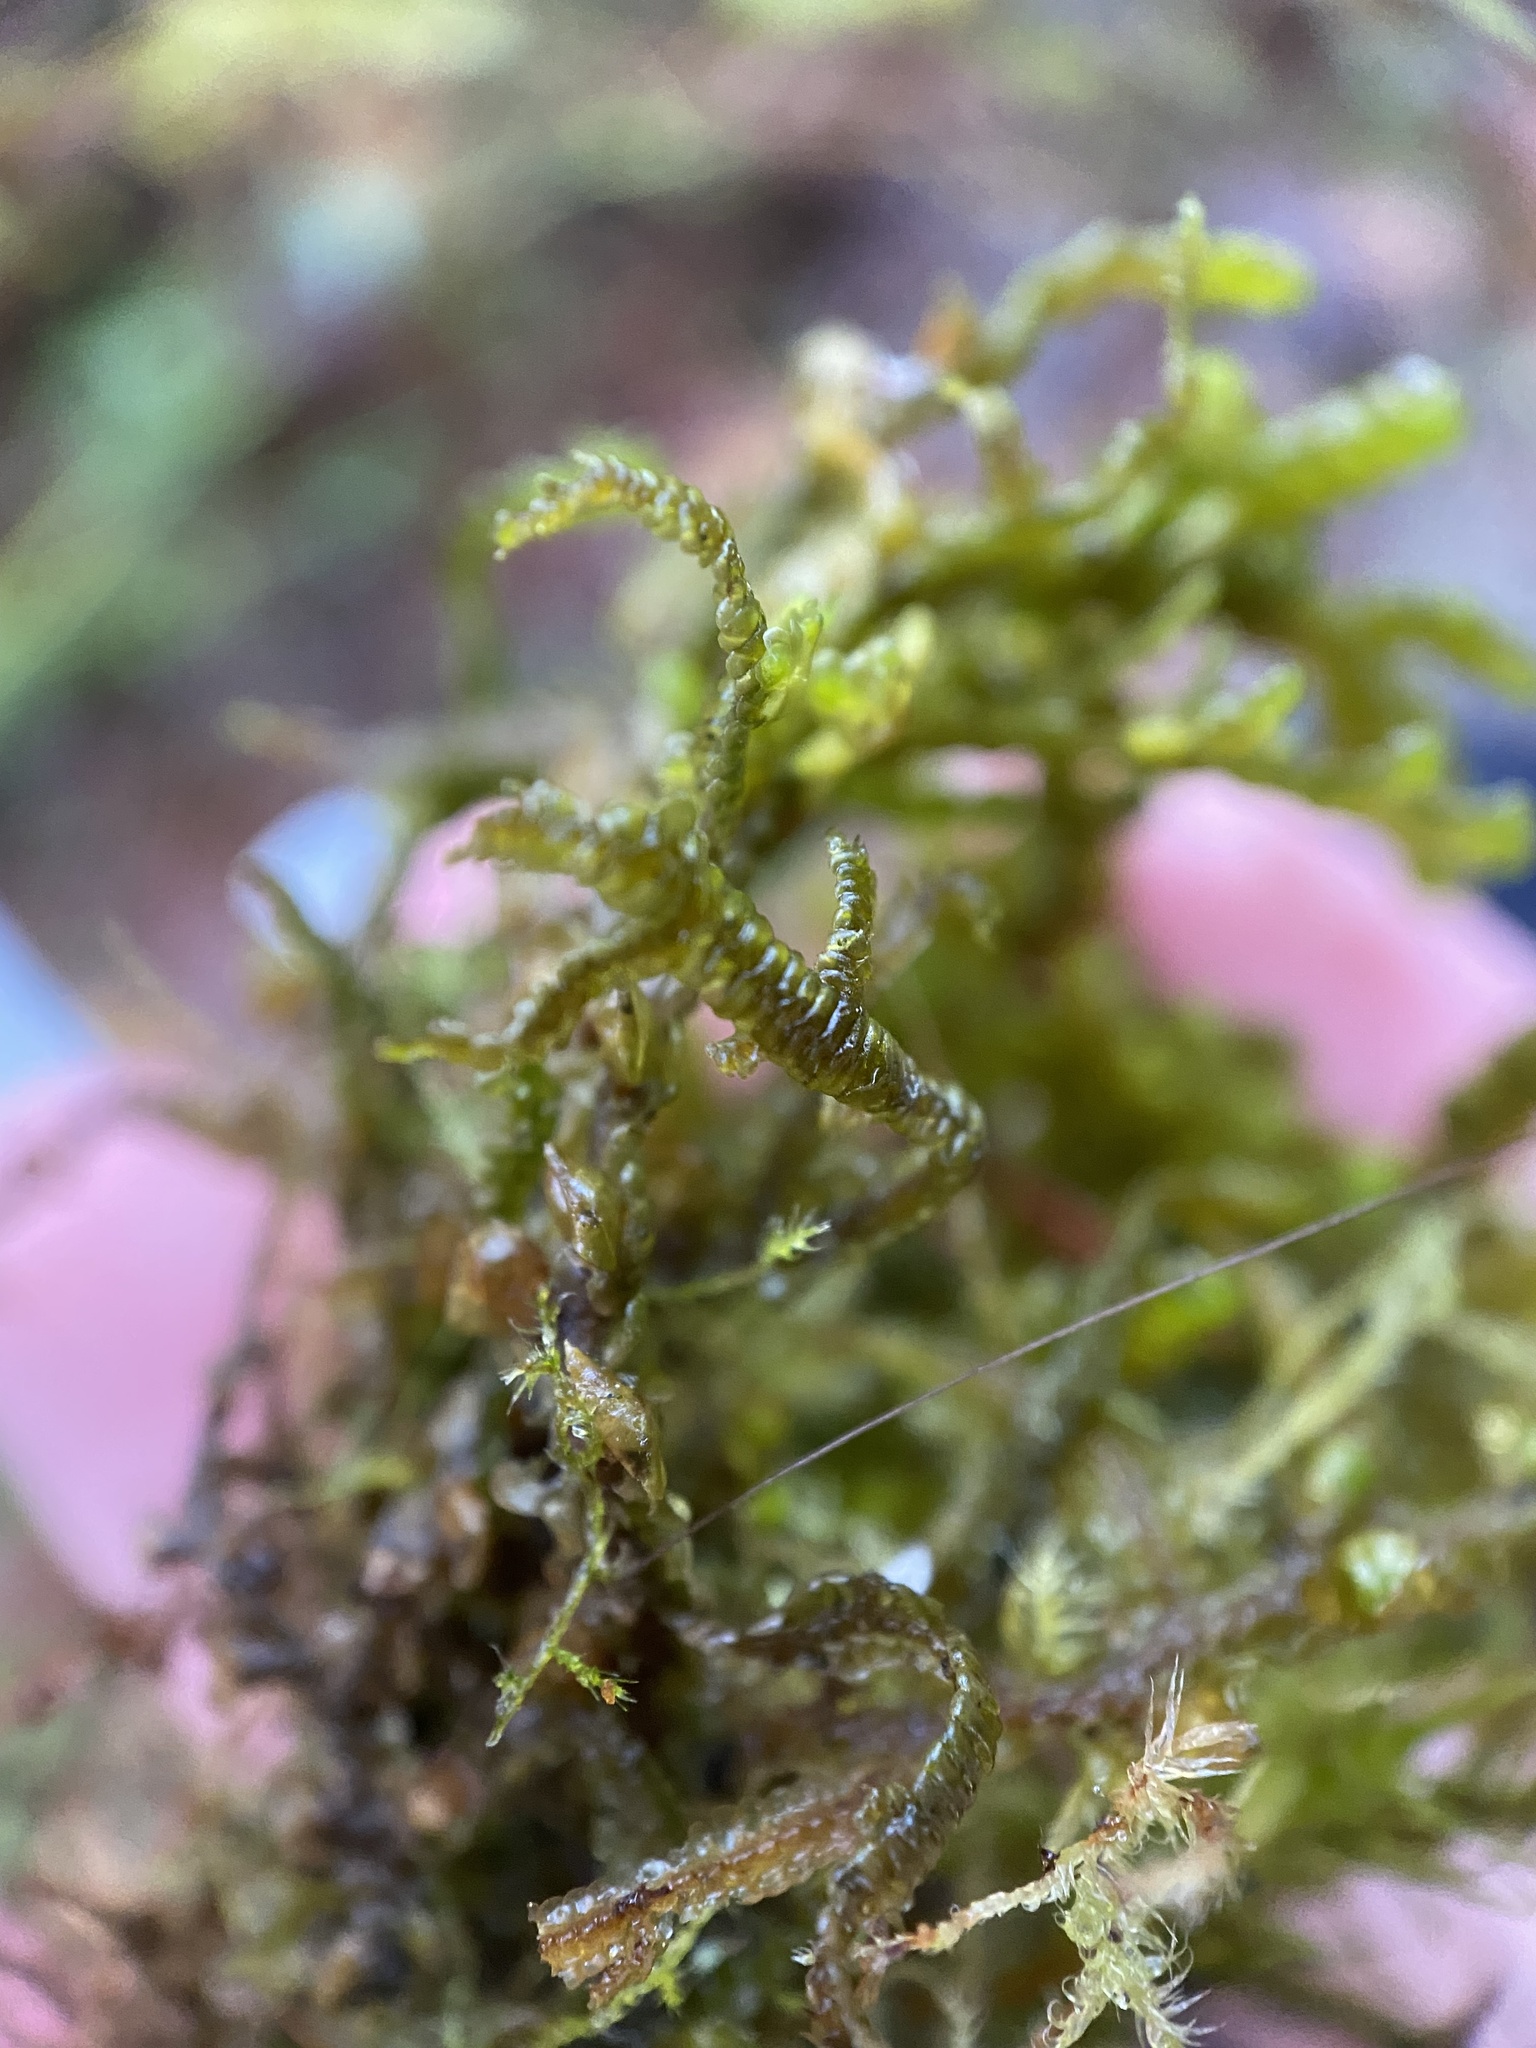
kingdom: Plantae
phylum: Marchantiophyta
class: Jungermanniopsida
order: Porellales
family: Porellaceae
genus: Porella
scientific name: Porella navicularis
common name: Tree ruffle liverwort
